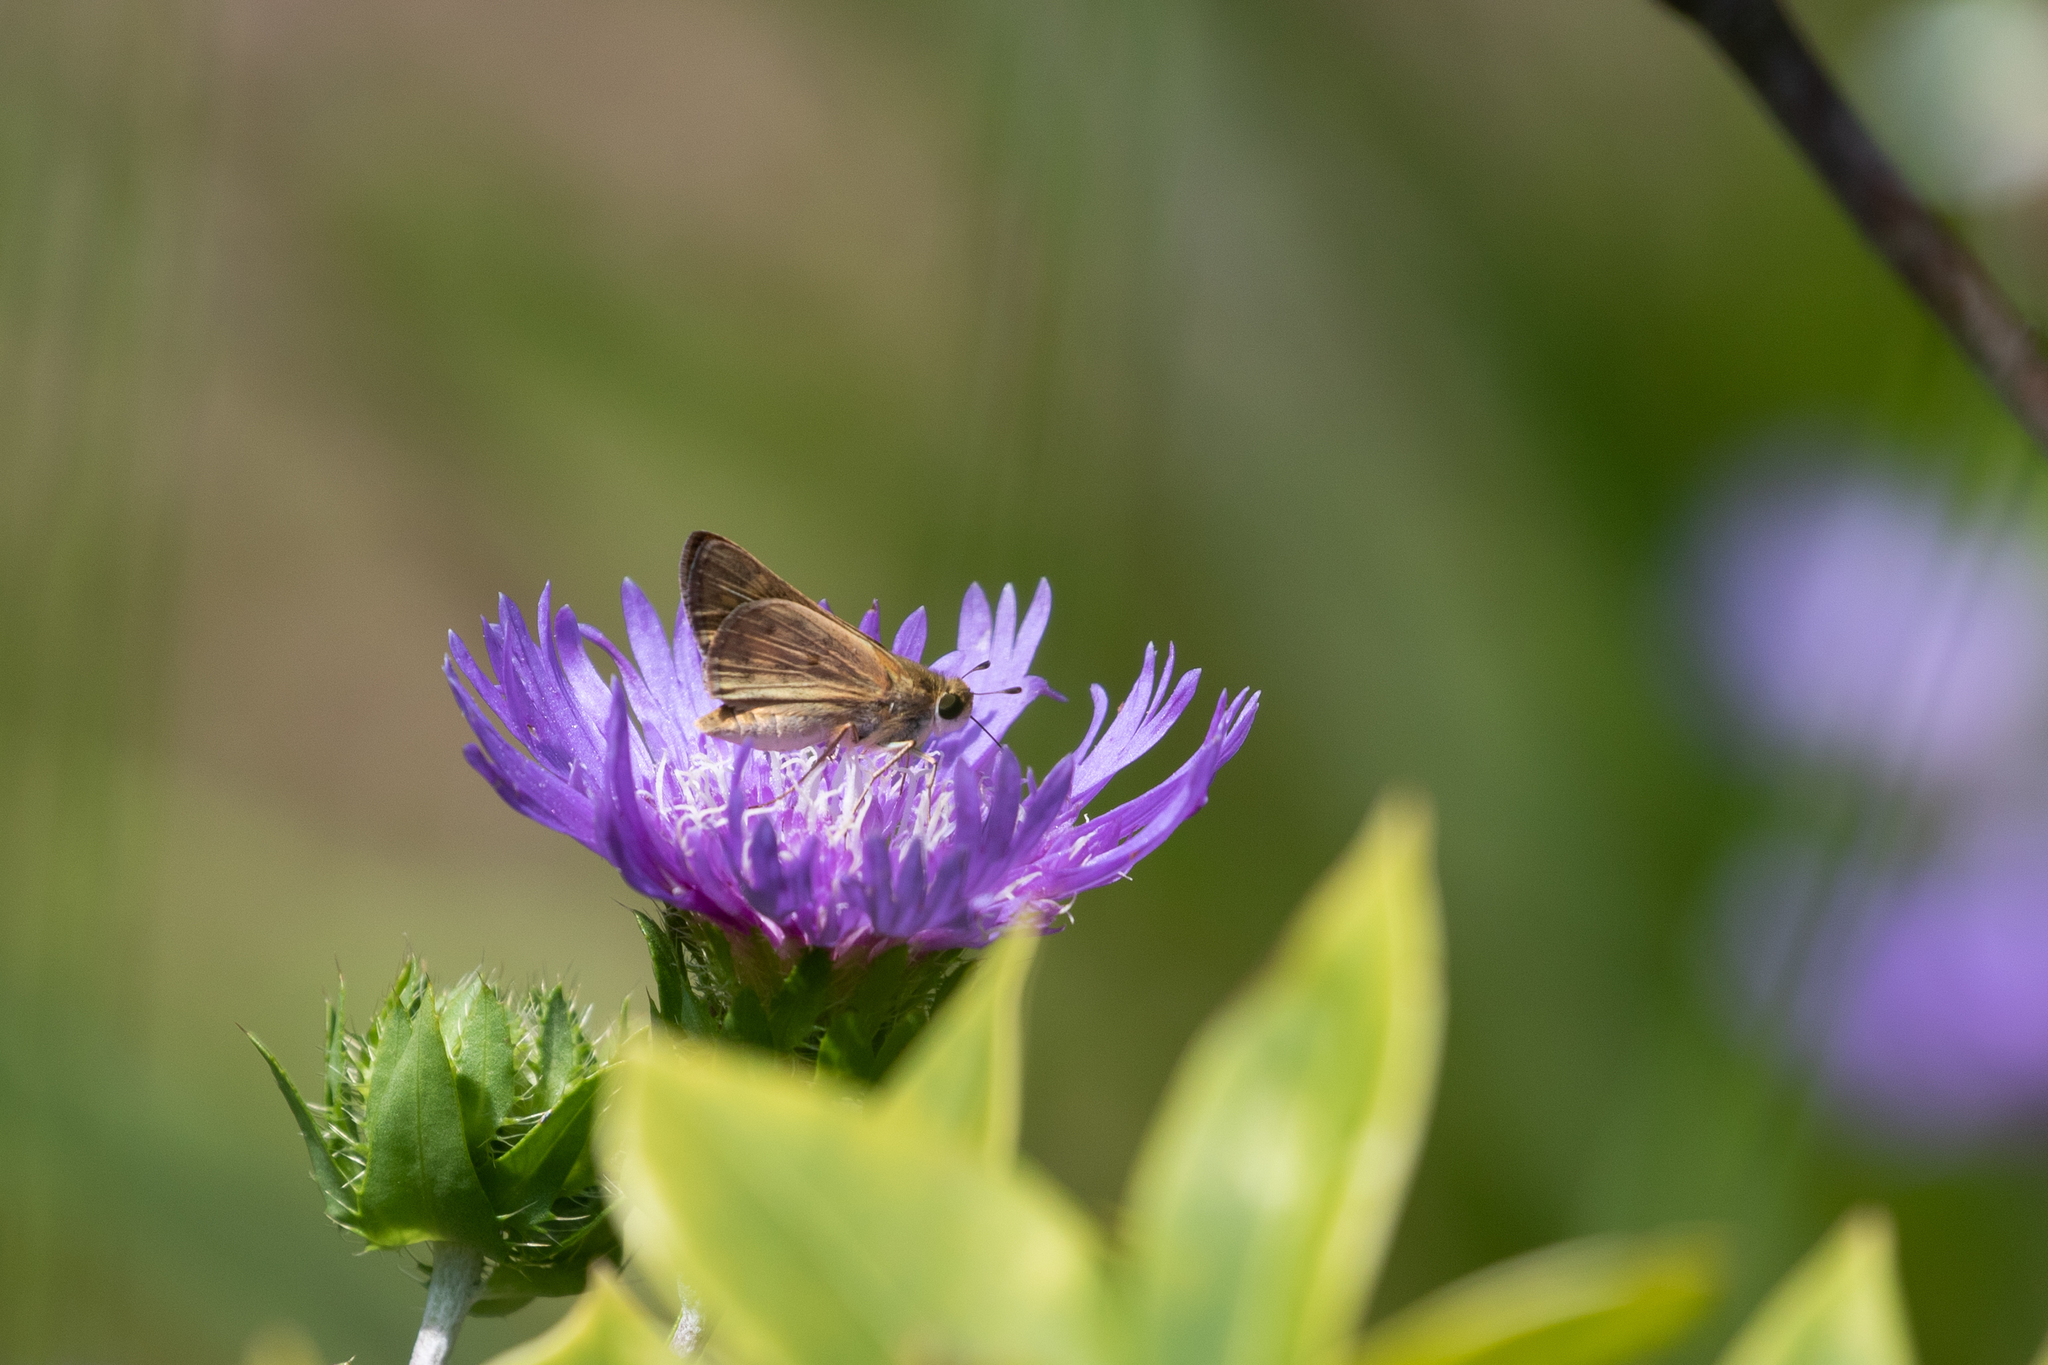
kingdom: Animalia
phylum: Arthropoda
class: Insecta
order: Lepidoptera
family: Hesperiidae
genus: Hylephila
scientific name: Hylephila phyleus
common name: Fiery skipper
